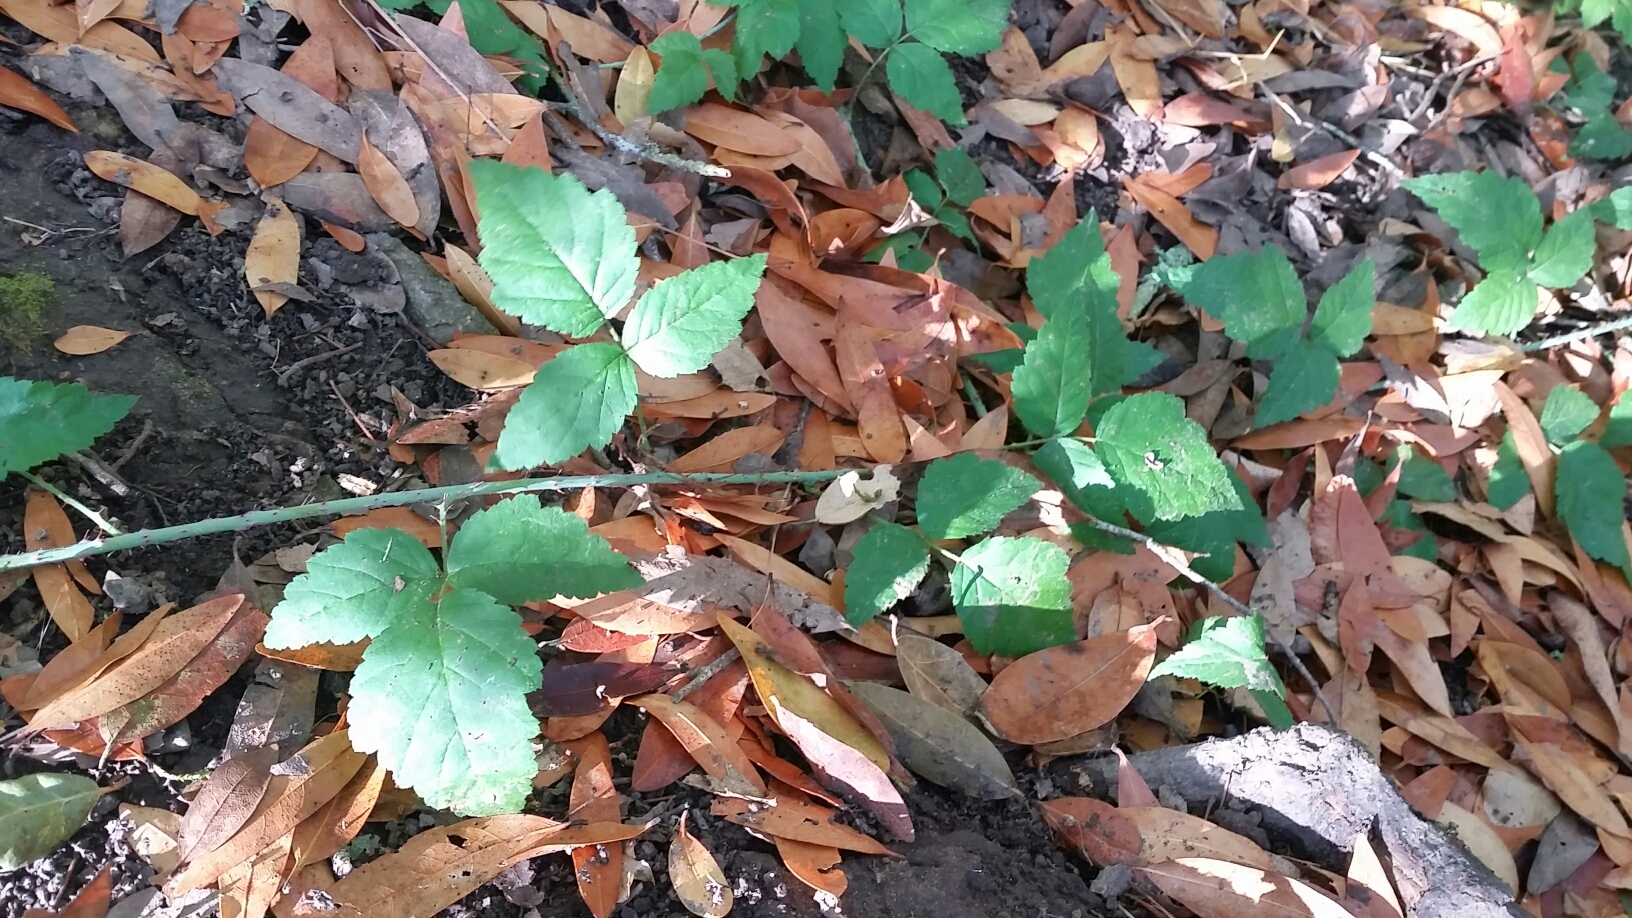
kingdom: Plantae
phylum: Tracheophyta
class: Magnoliopsida
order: Rosales
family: Rosaceae
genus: Rubus
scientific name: Rubus ursinus
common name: Pacific blackberry
